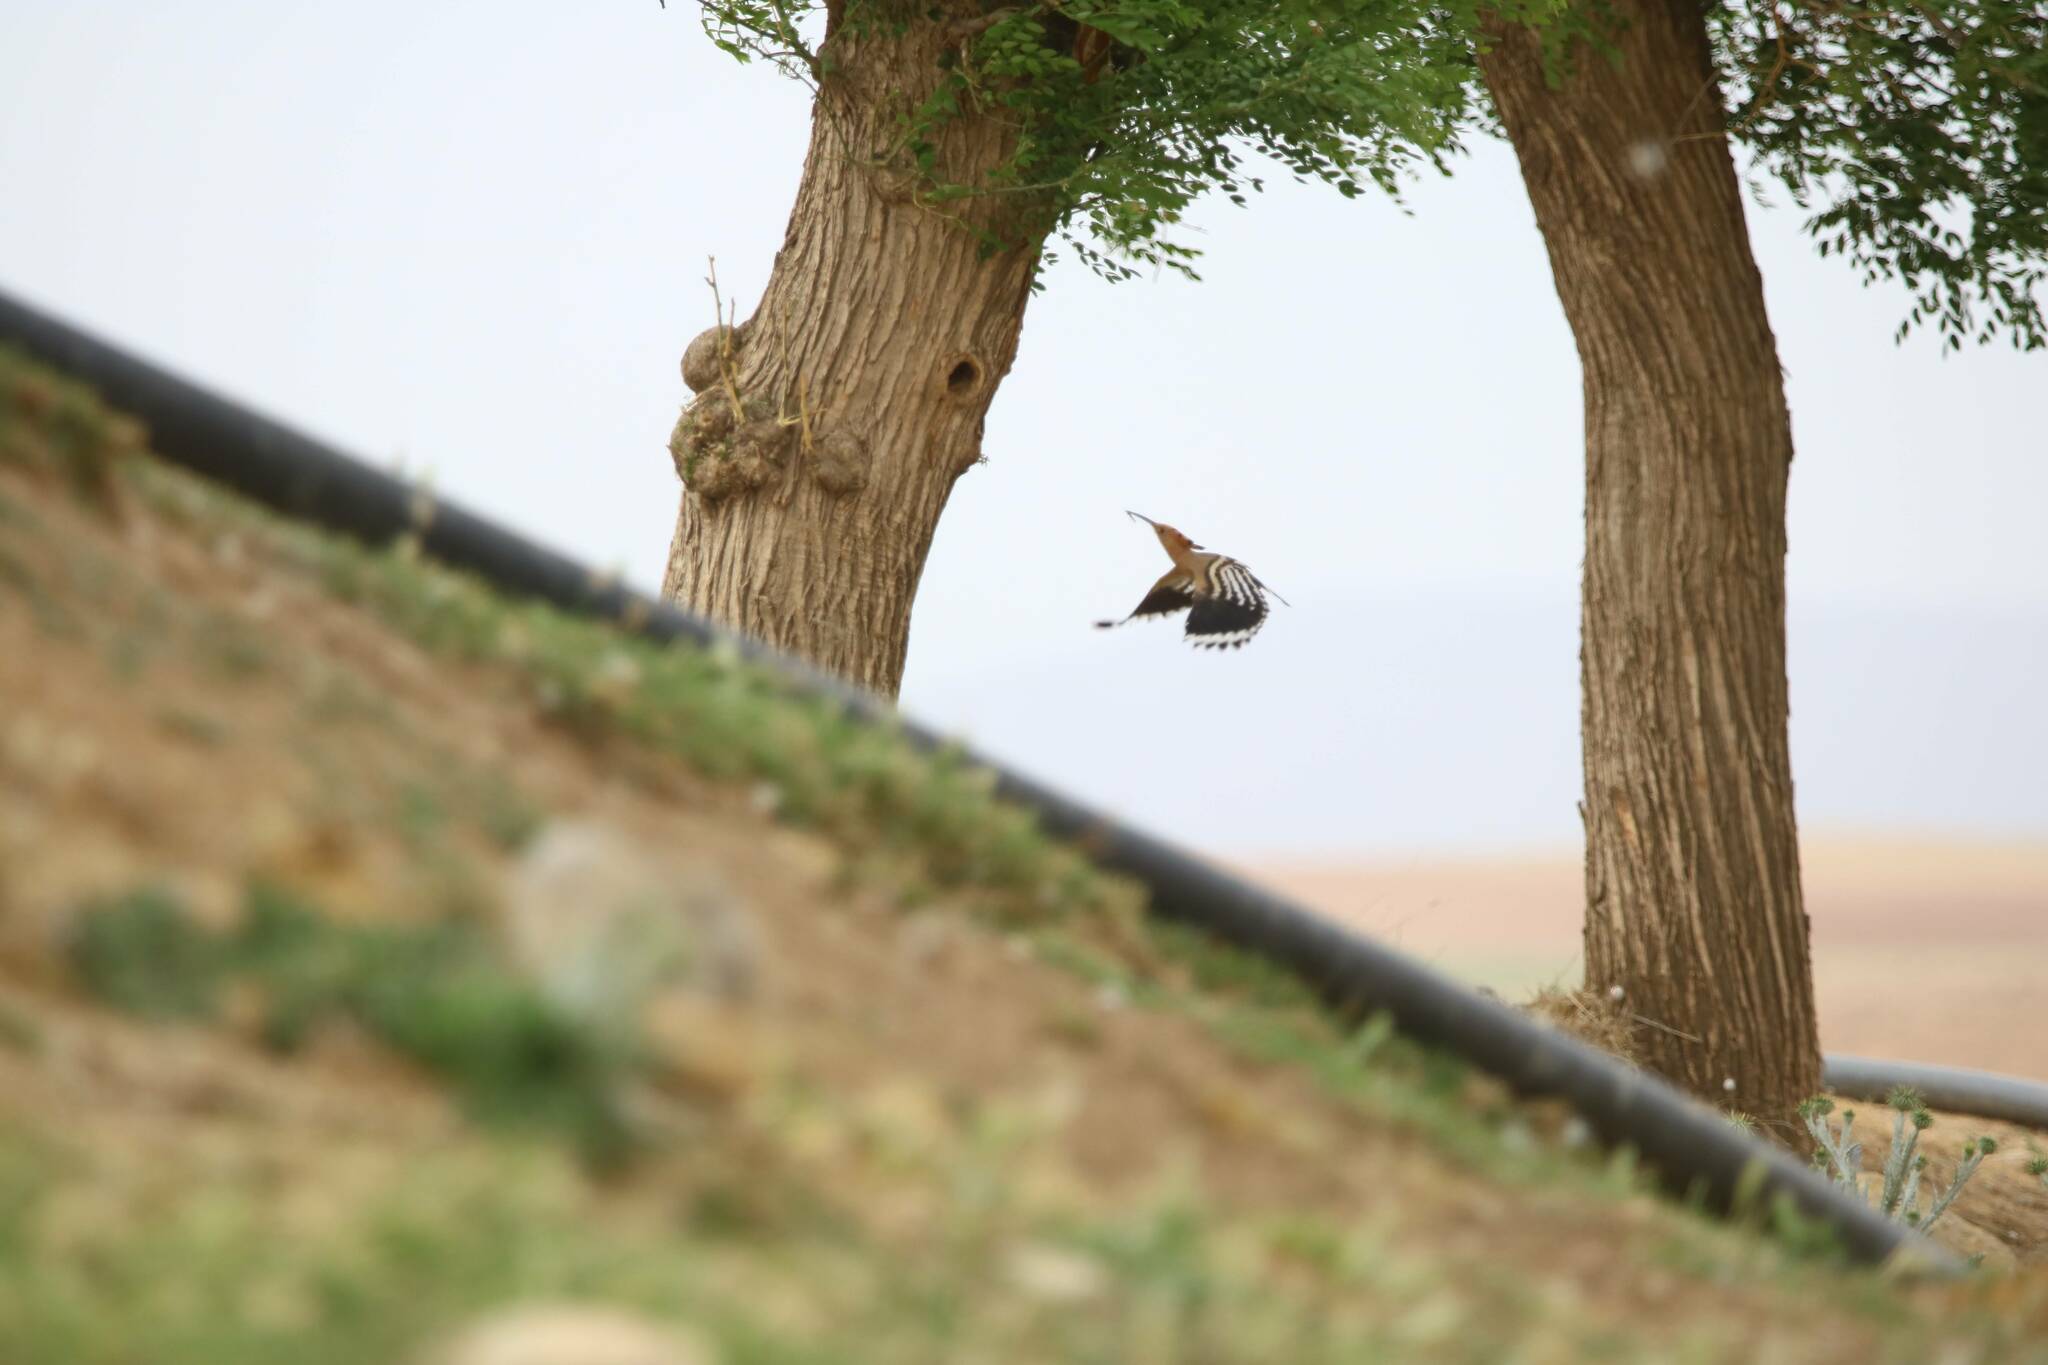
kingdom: Animalia
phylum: Chordata
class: Aves
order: Bucerotiformes
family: Upupidae
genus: Upupa
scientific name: Upupa epops
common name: Eurasian hoopoe
